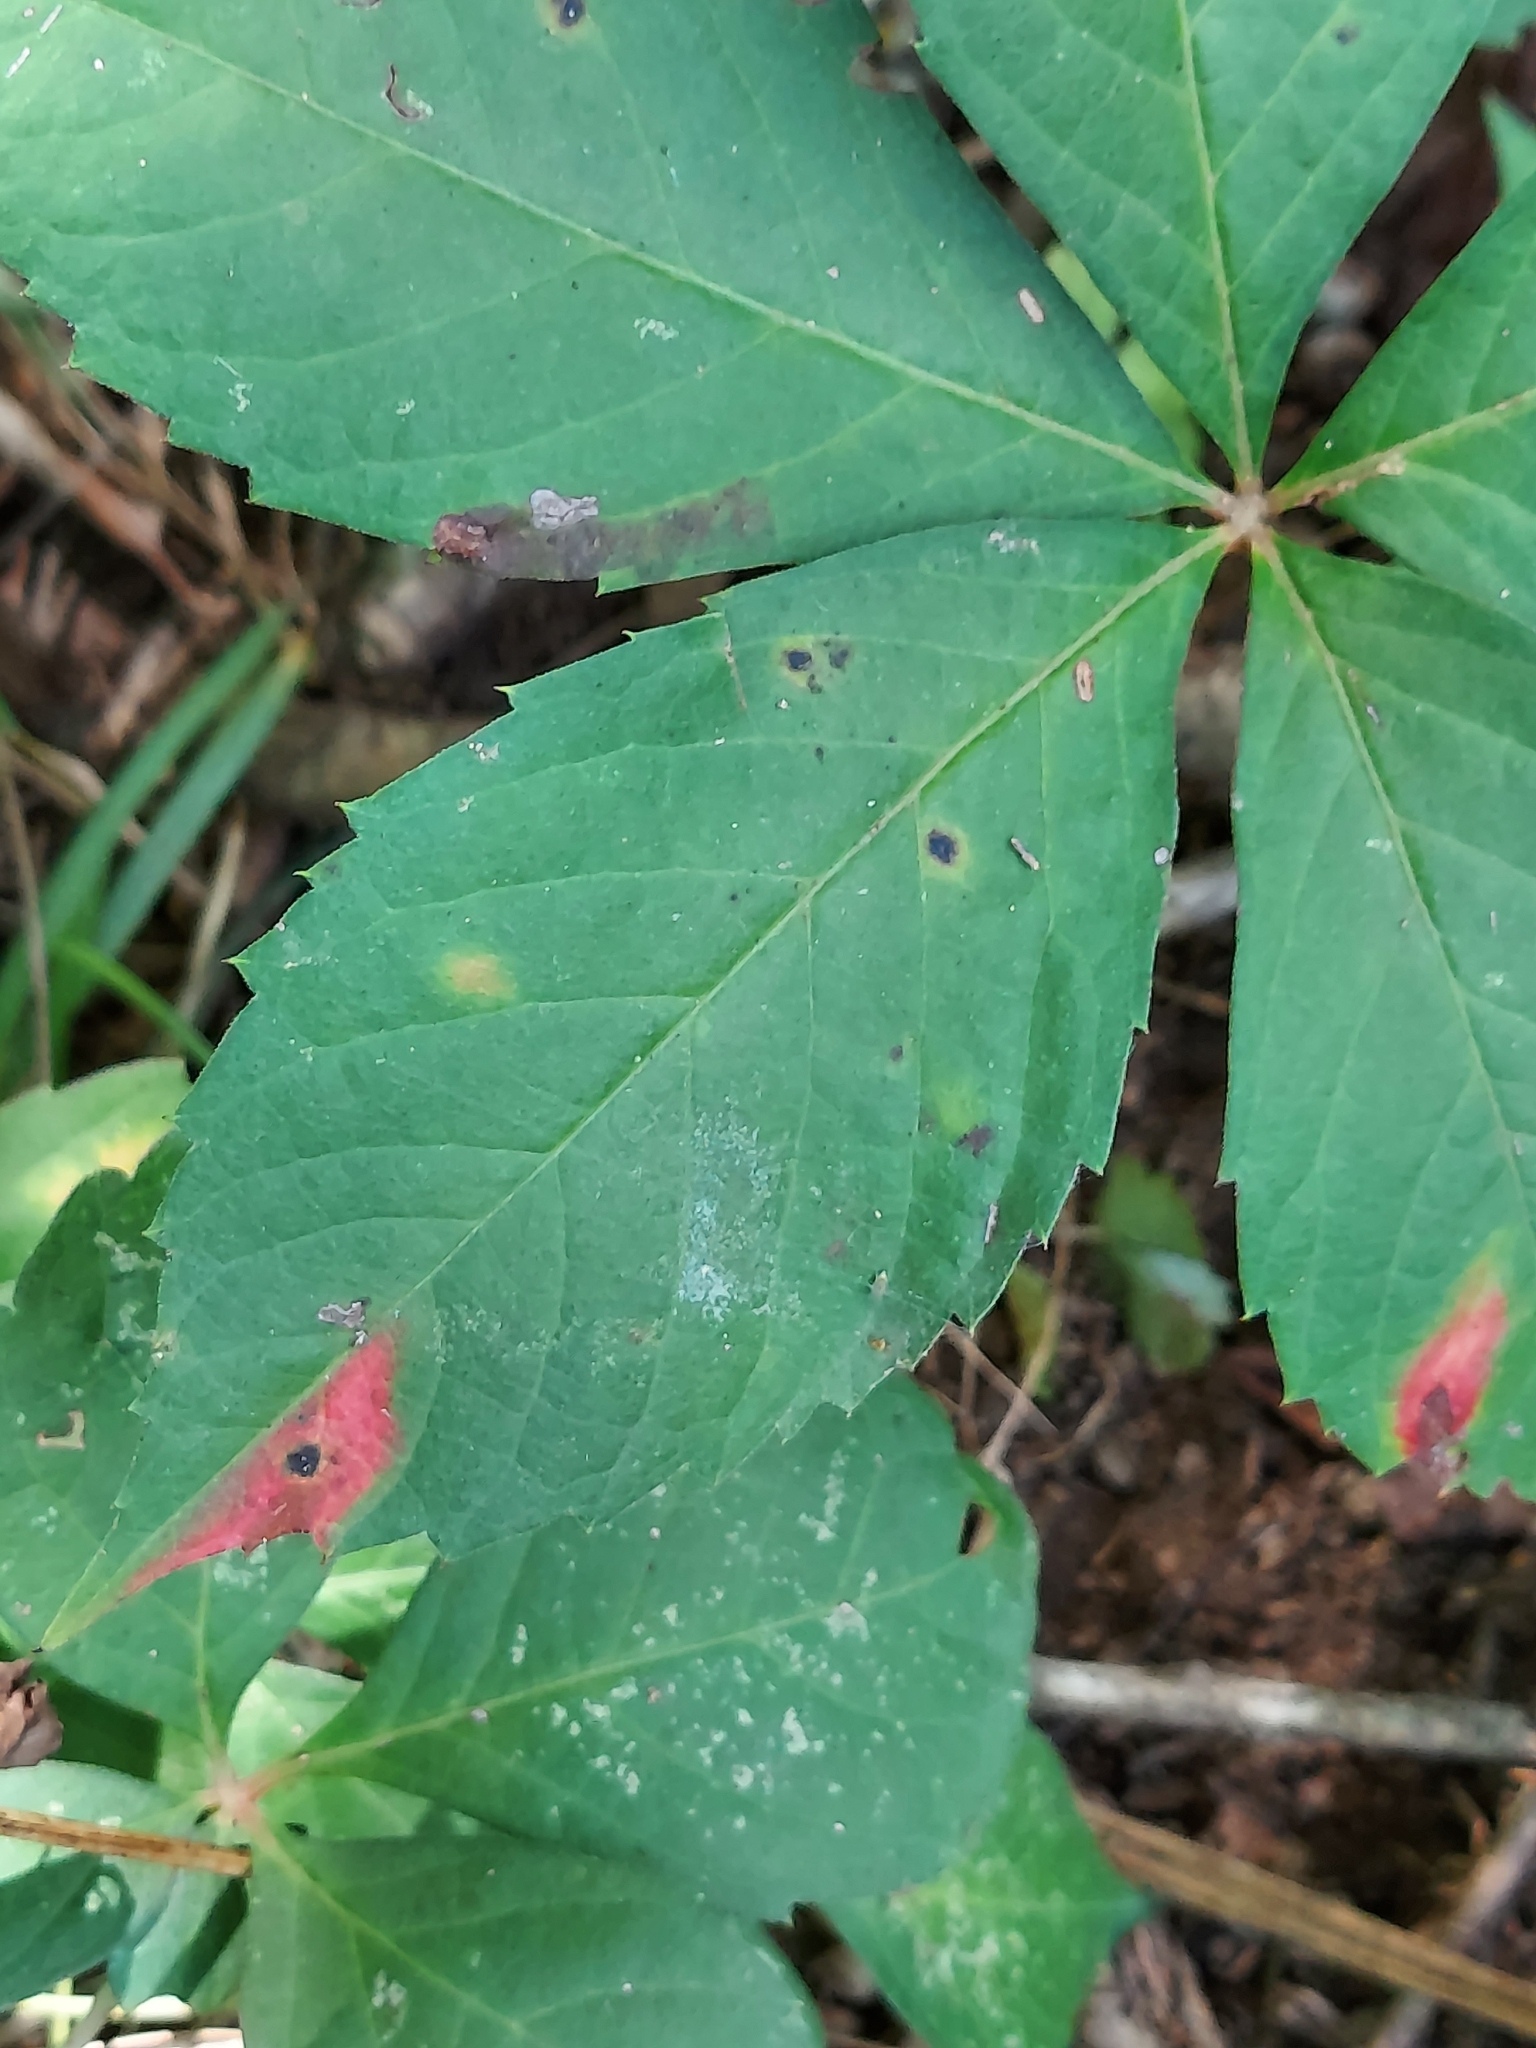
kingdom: Plantae
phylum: Tracheophyta
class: Magnoliopsida
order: Vitales
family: Vitaceae
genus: Parthenocissus
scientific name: Parthenocissus quinquefolia
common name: Virginia-creeper
